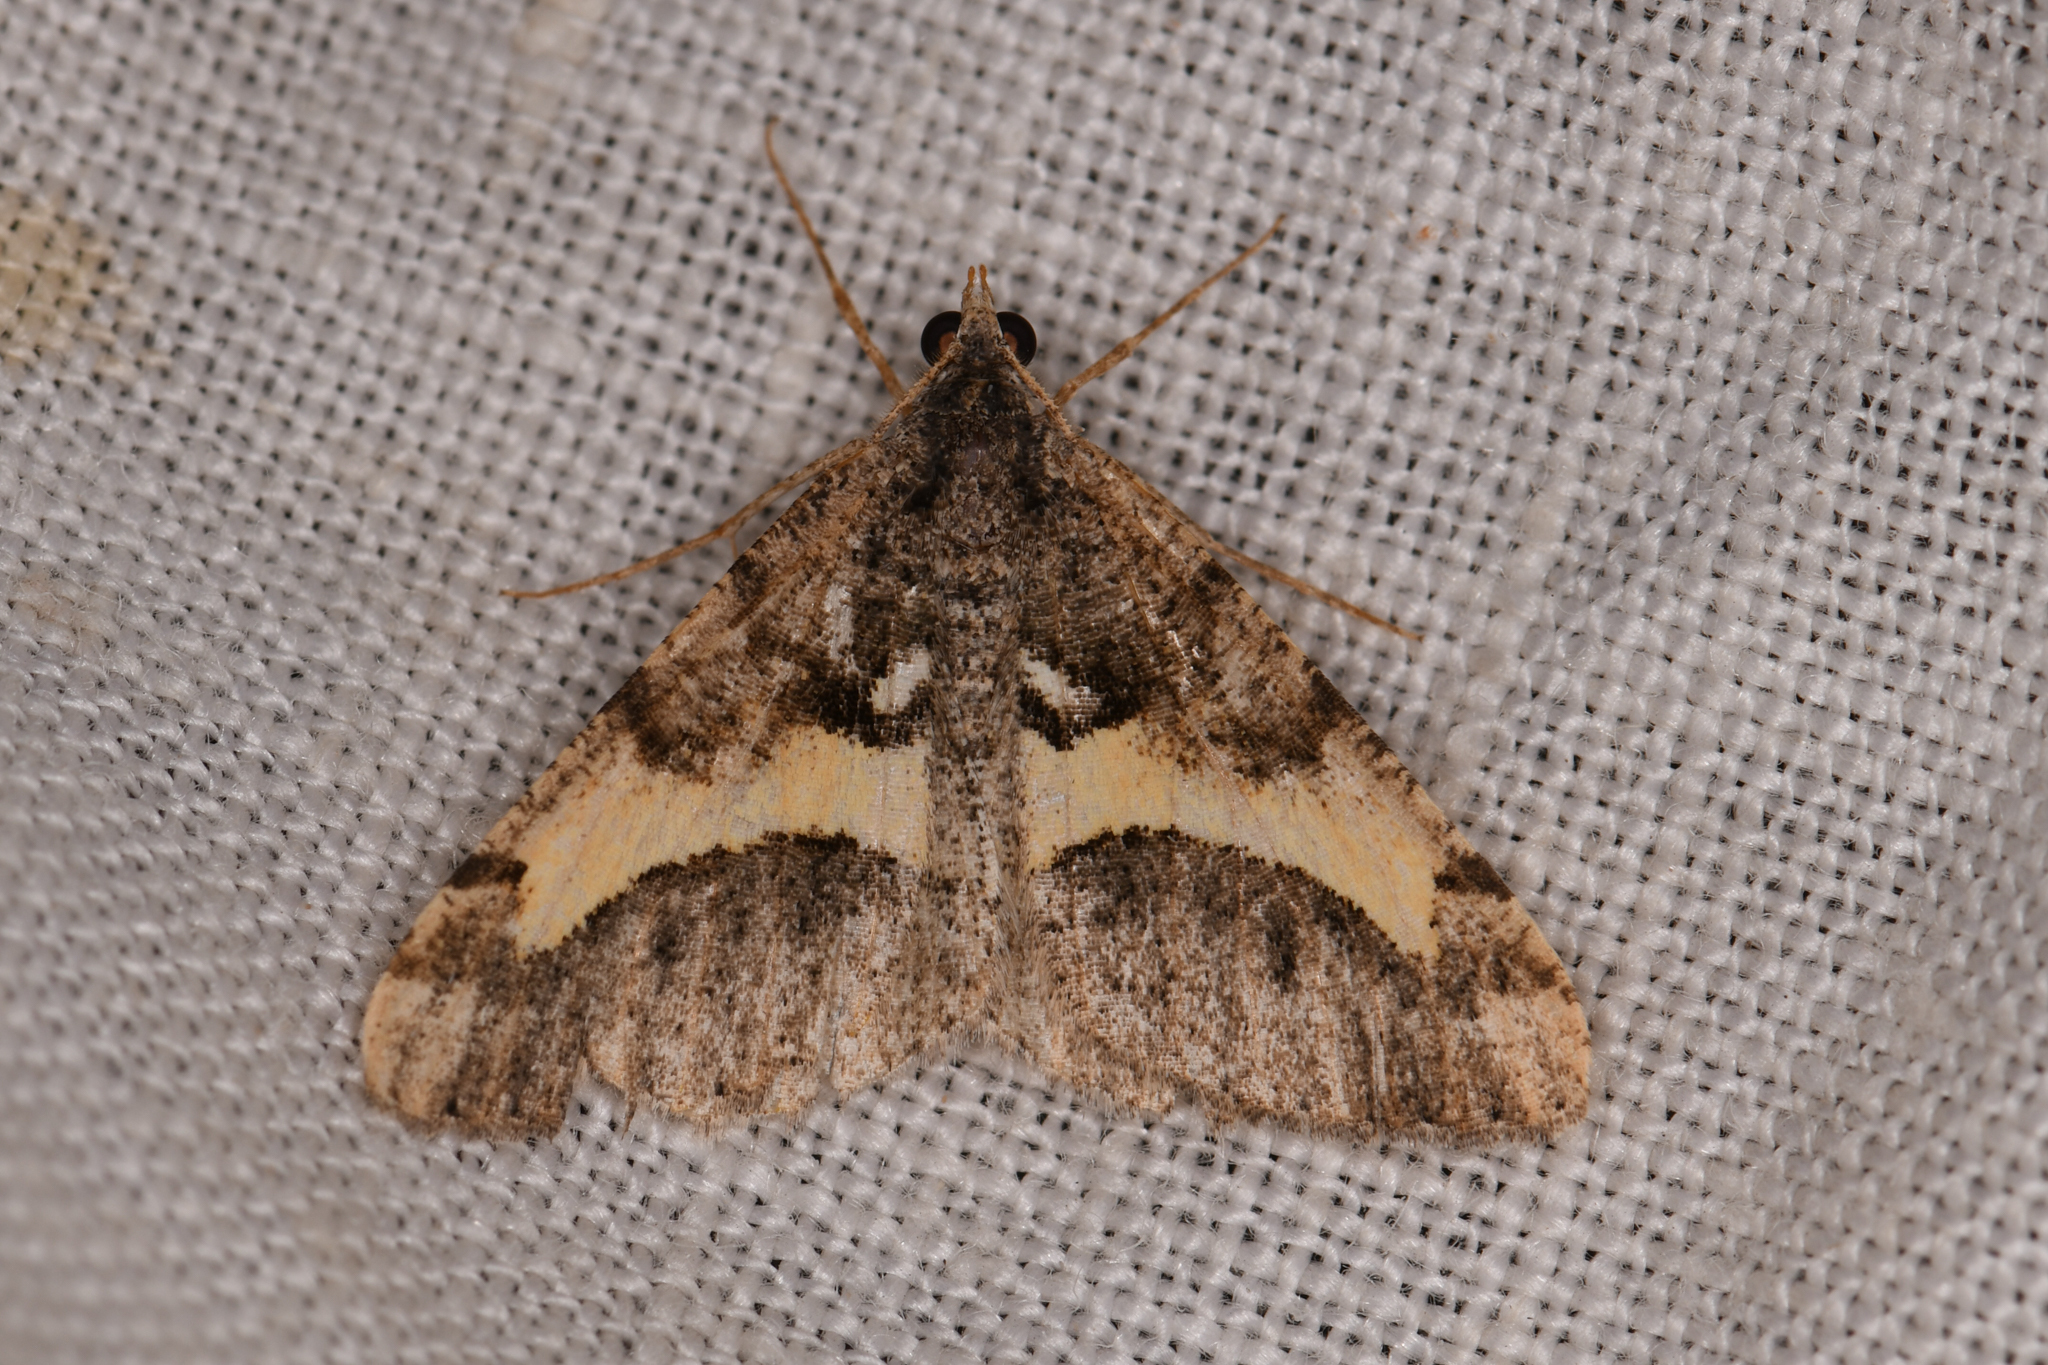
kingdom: Animalia
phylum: Arthropoda
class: Insecta
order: Lepidoptera
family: Geometridae
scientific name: Geometridae
